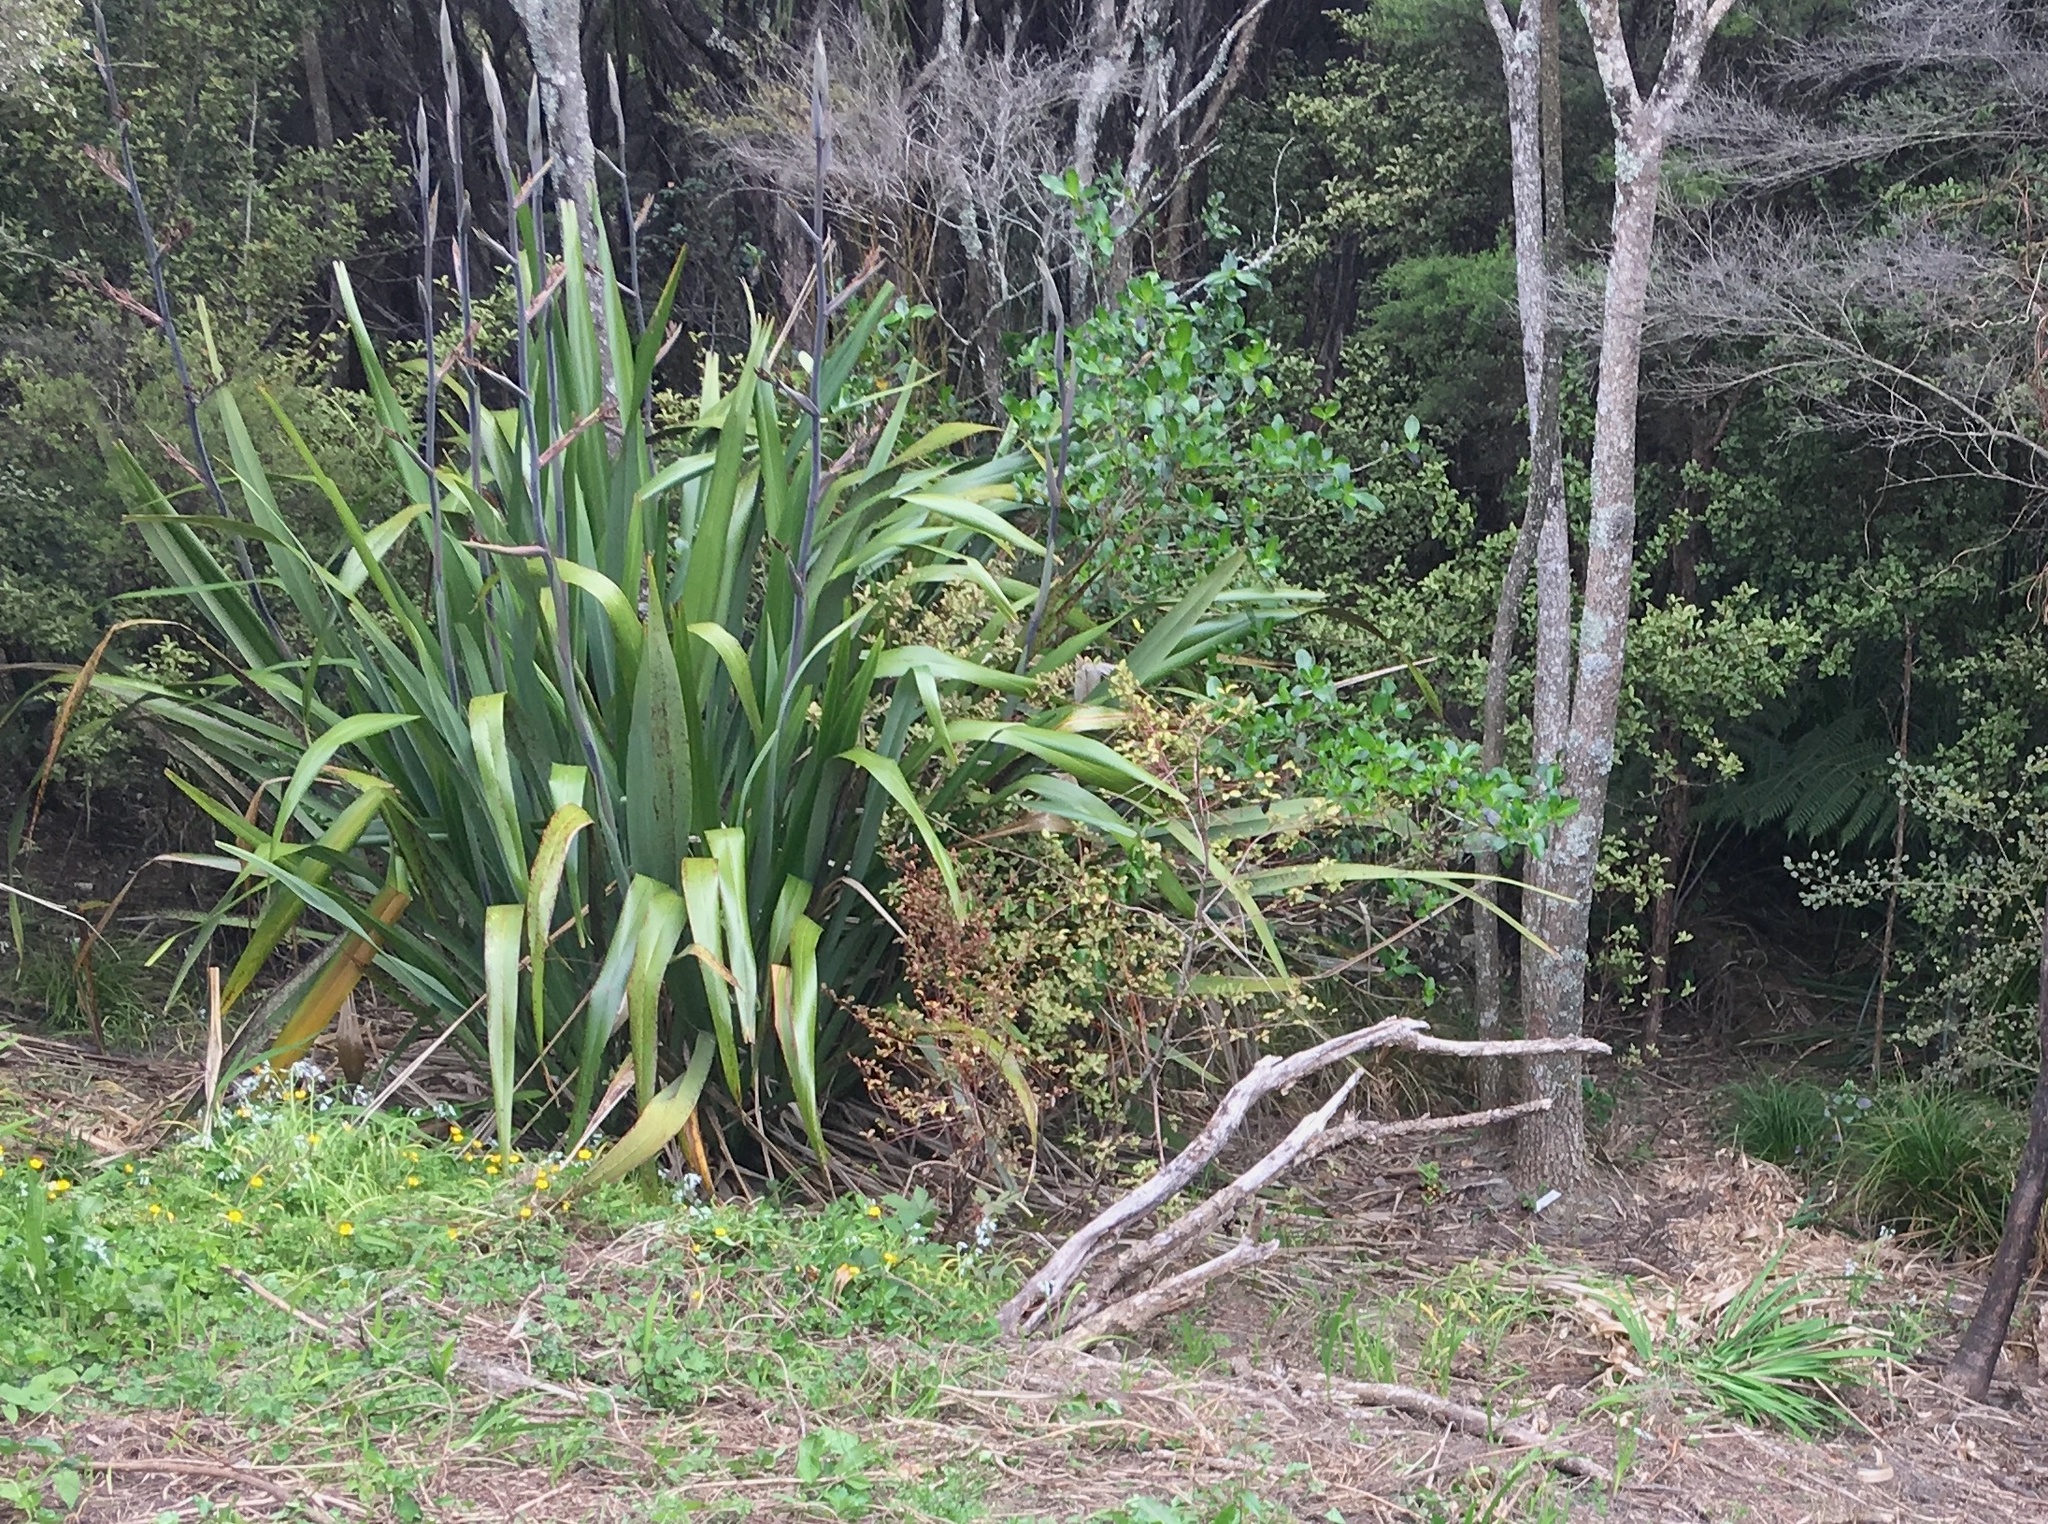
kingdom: Plantae
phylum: Tracheophyta
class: Magnoliopsida
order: Ericales
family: Primulaceae
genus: Myrsine
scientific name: Myrsine australis
